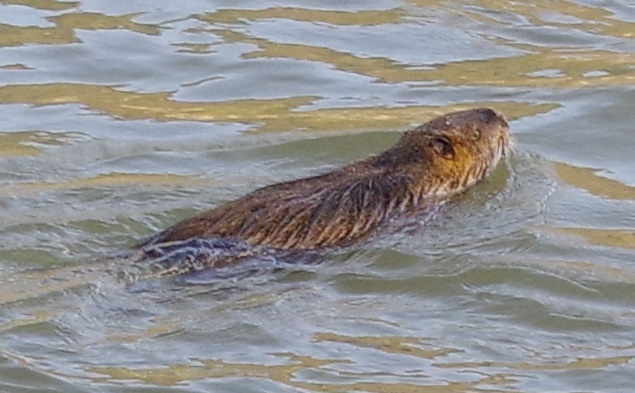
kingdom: Animalia
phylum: Chordata
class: Mammalia
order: Rodentia
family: Myocastoridae
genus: Myocastor
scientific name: Myocastor coypus
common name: Coypu
